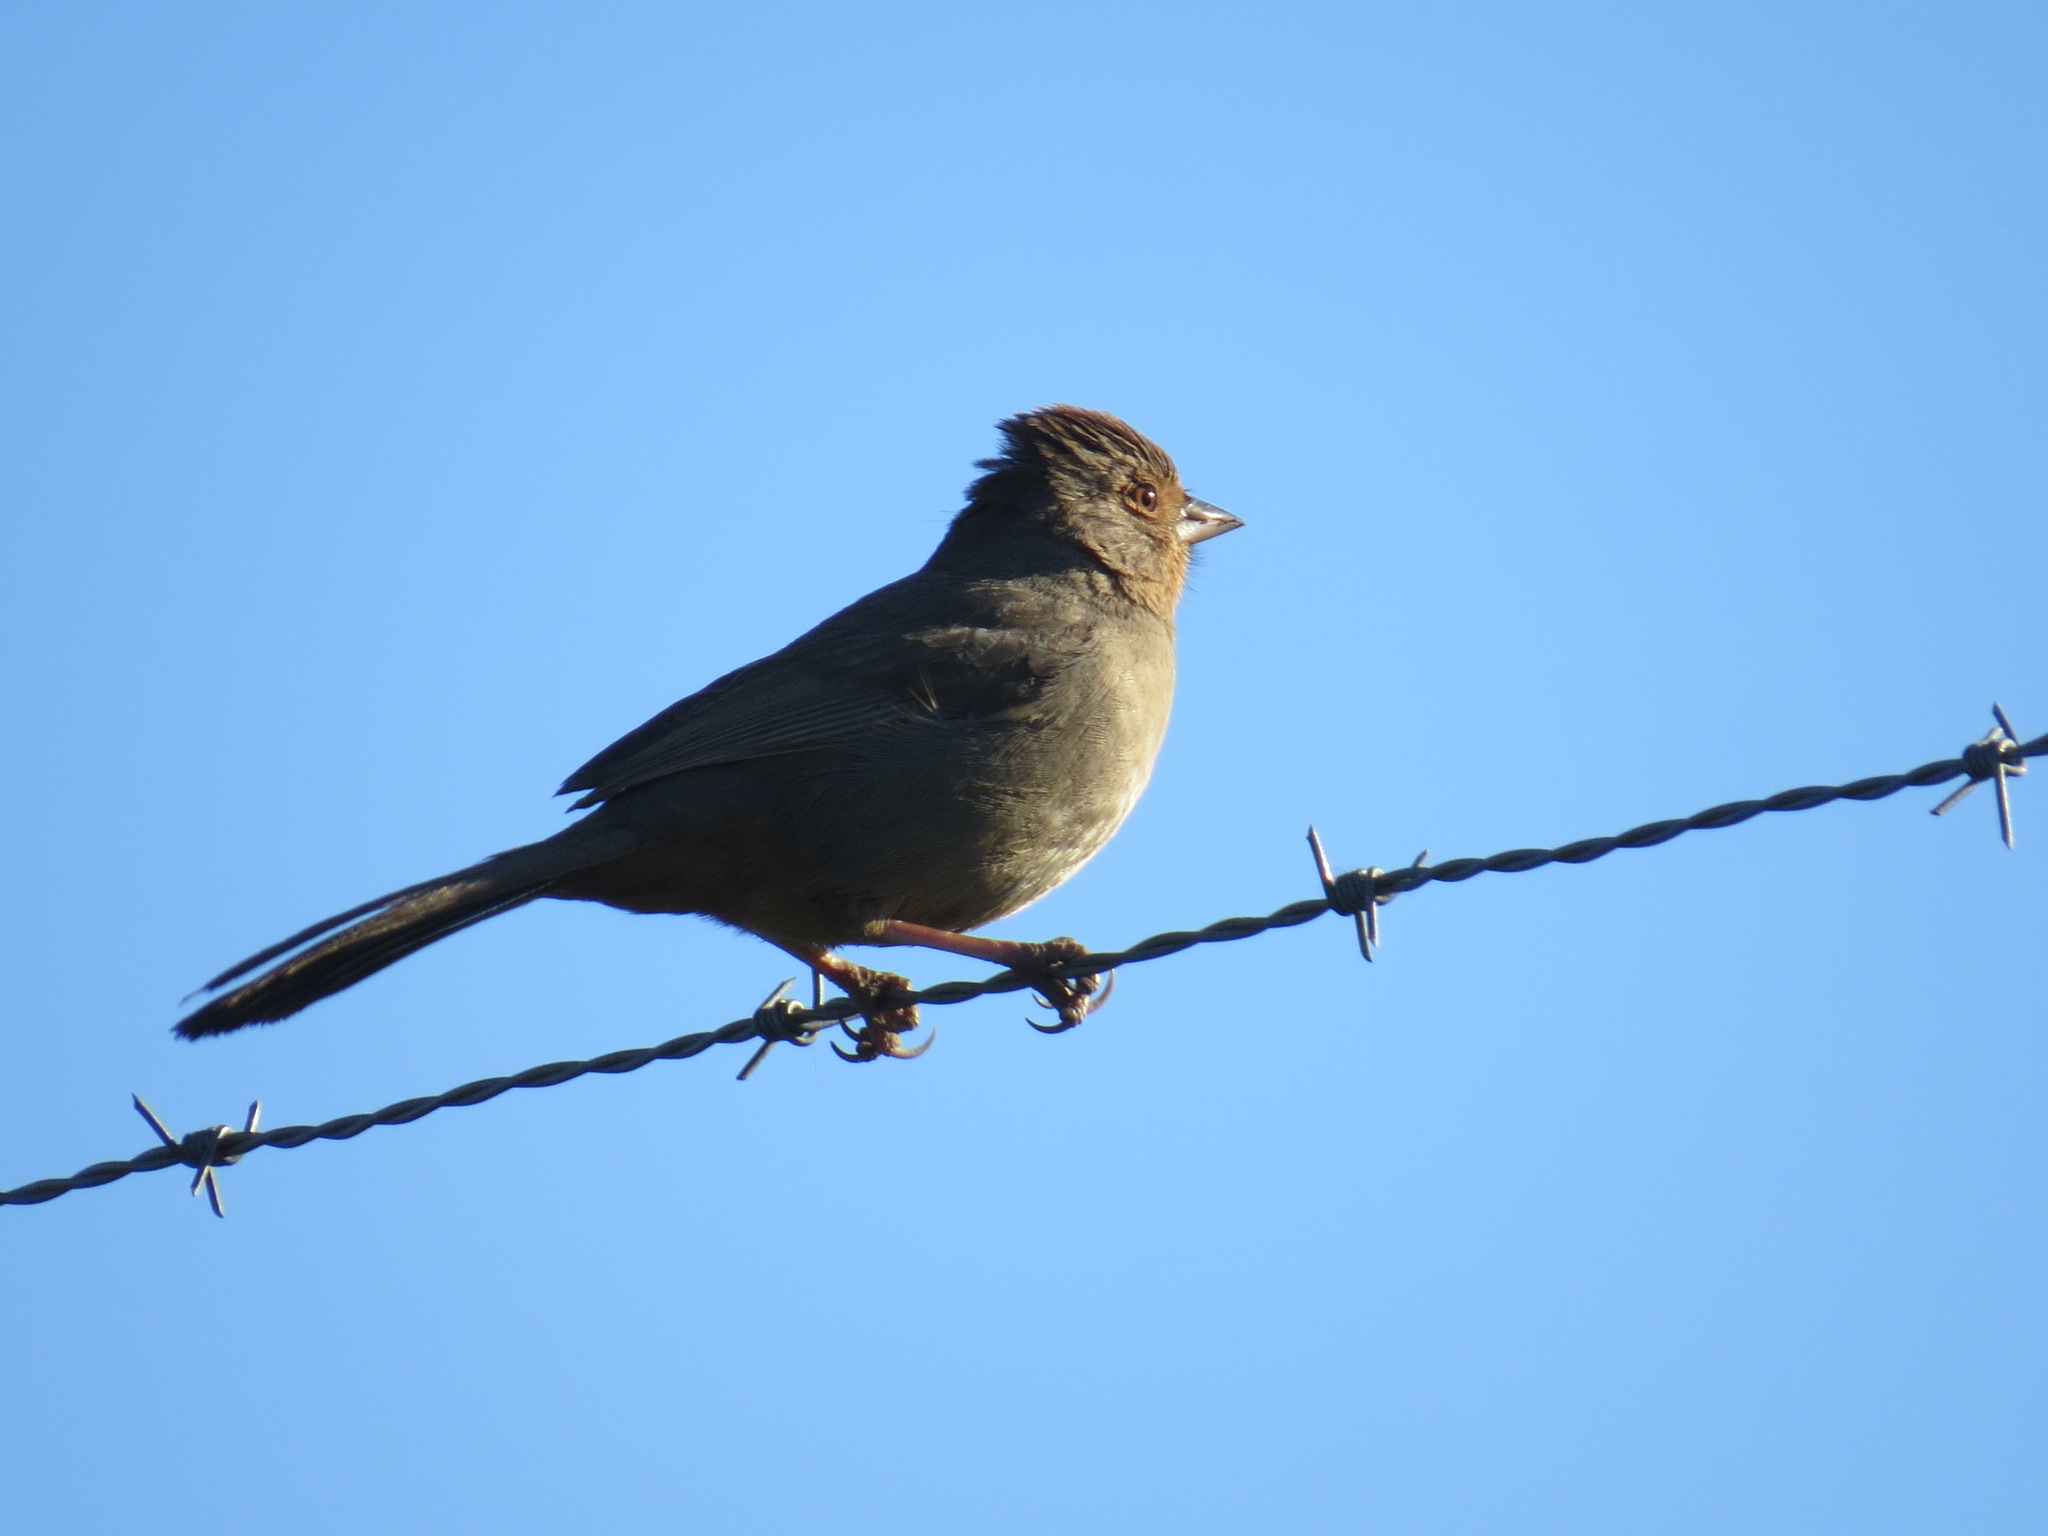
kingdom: Animalia
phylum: Chordata
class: Aves
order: Passeriformes
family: Passerellidae
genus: Melozone
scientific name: Melozone crissalis
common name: California towhee
